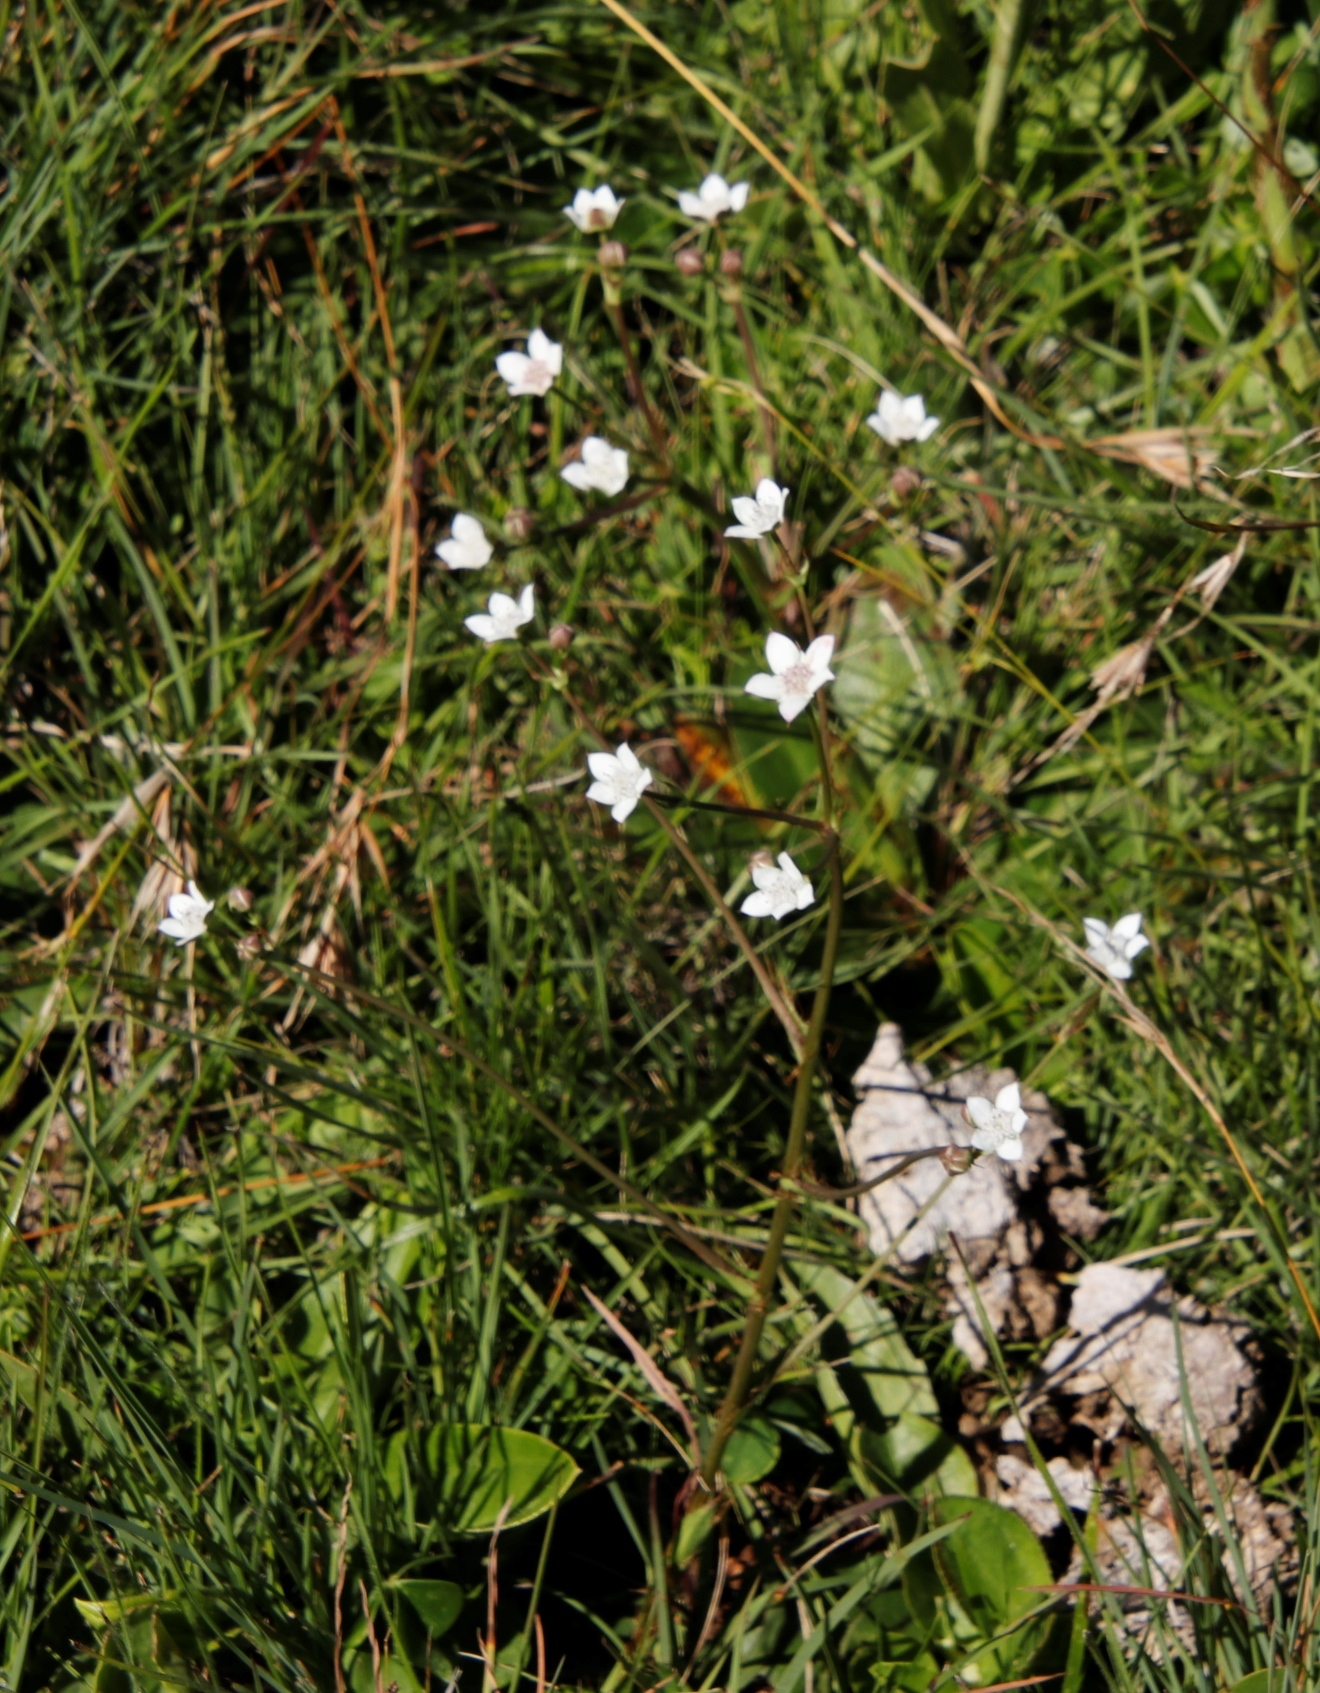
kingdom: Plantae
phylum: Tracheophyta
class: Magnoliopsida
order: Apiales
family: Apiaceae
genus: Alepidea
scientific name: Alepidea natalensis
